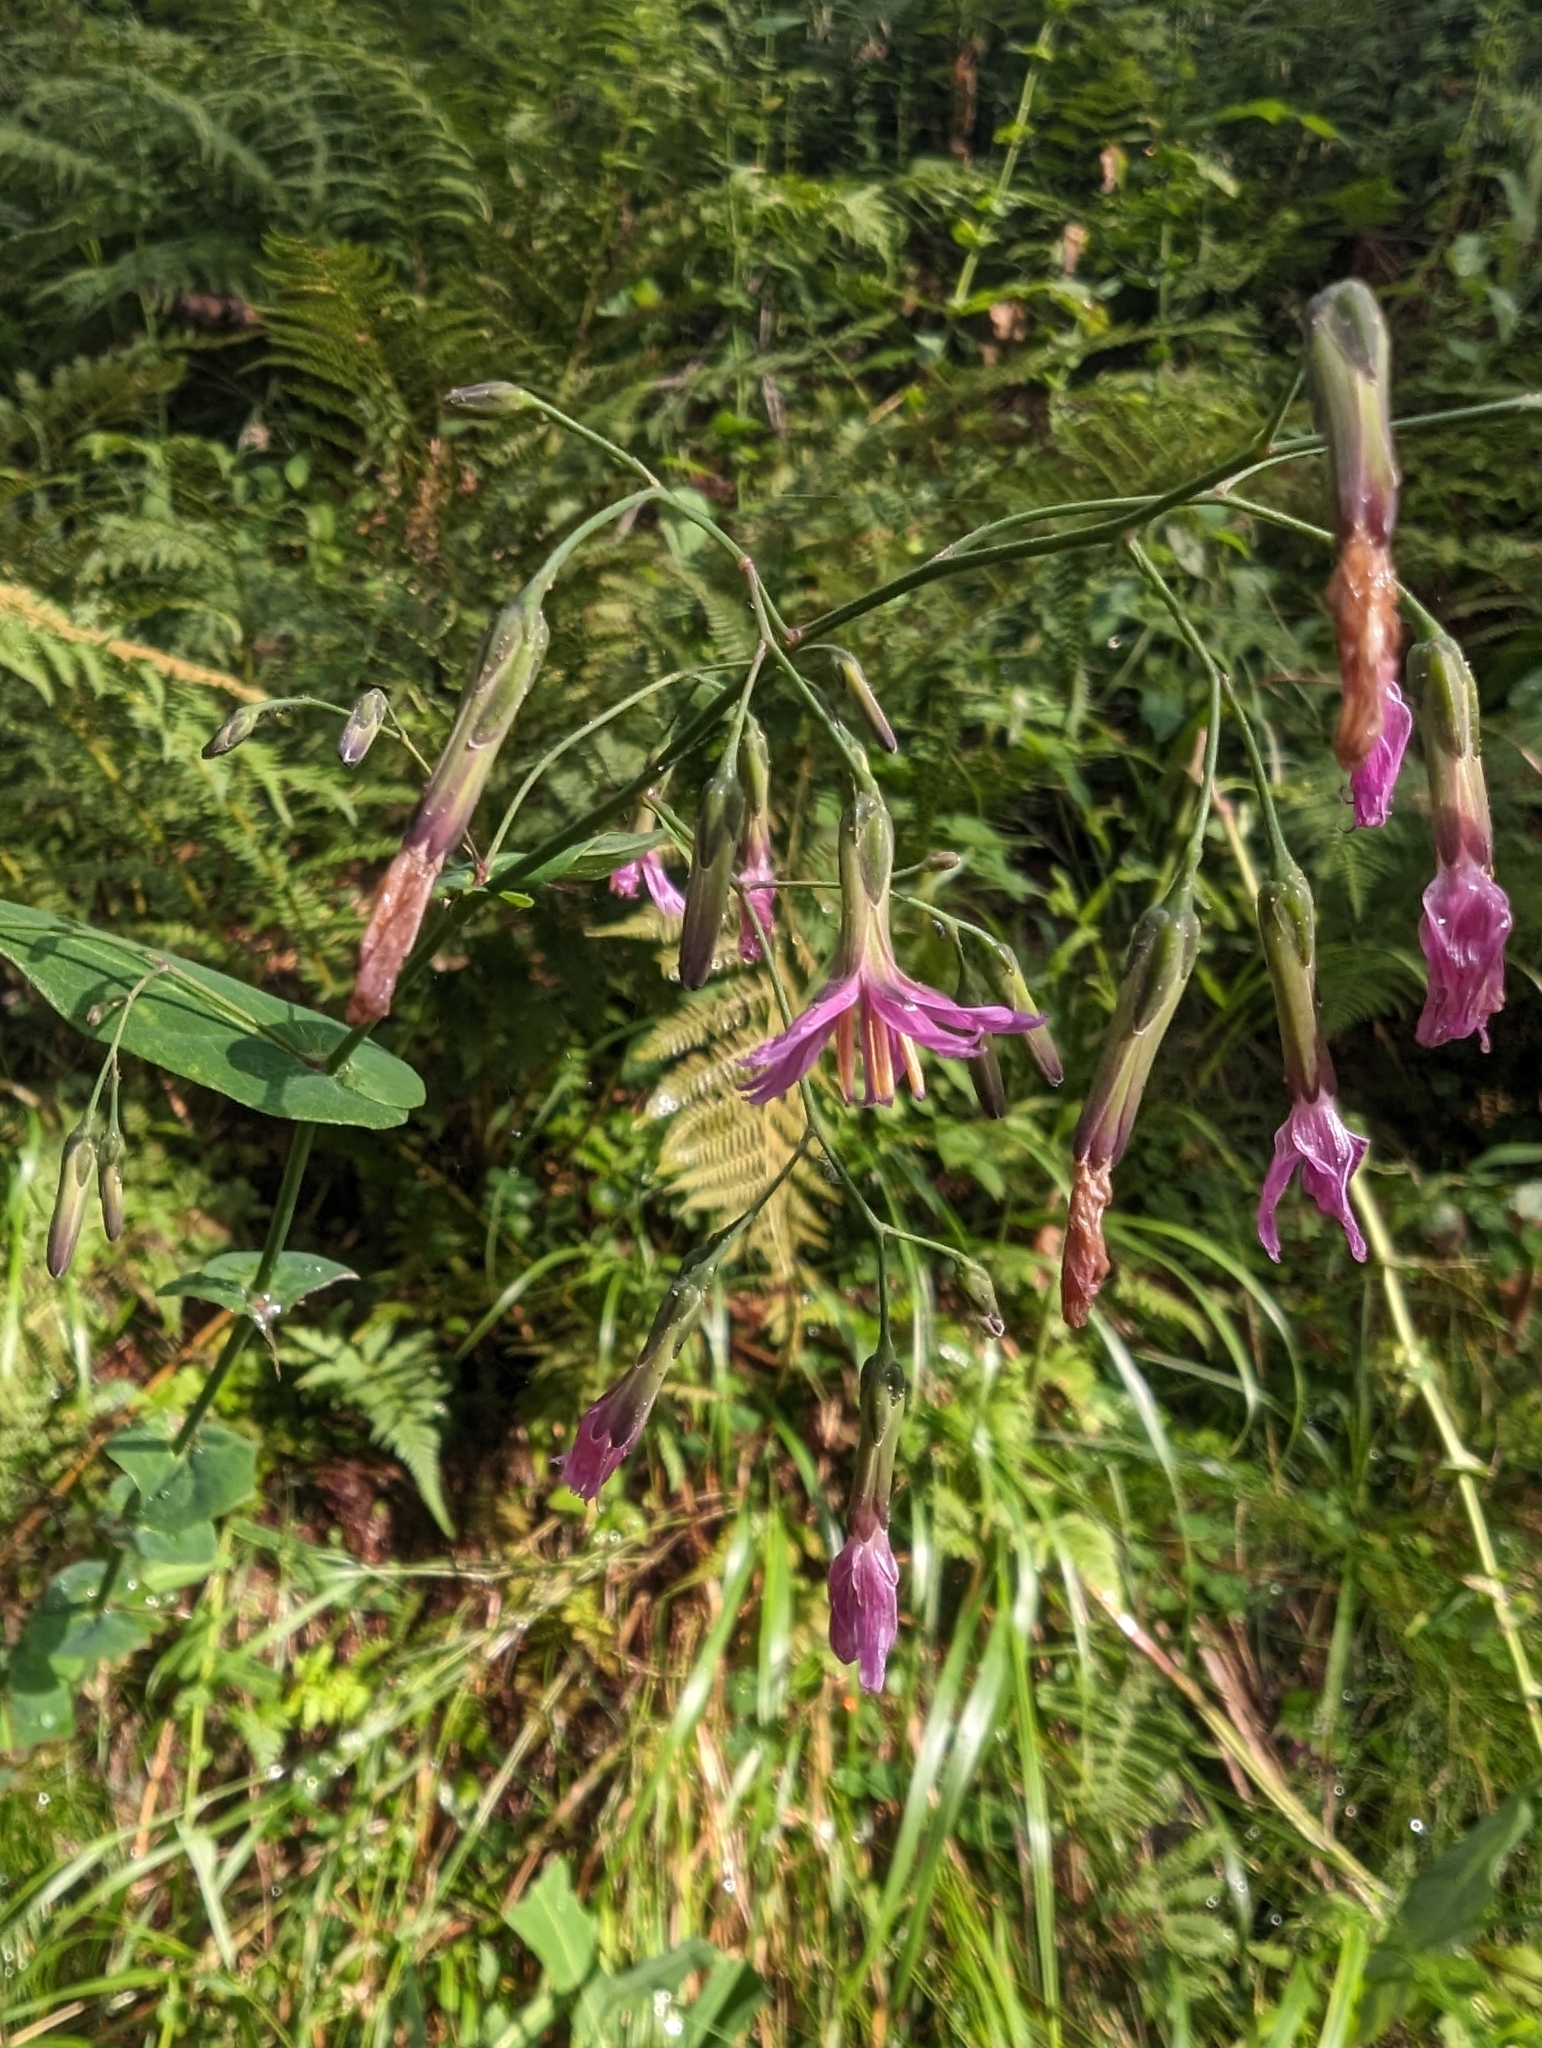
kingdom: Plantae
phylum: Tracheophyta
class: Magnoliopsida
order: Asterales
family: Asteraceae
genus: Prenanthes
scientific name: Prenanthes purpurea
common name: Purple lettuce
